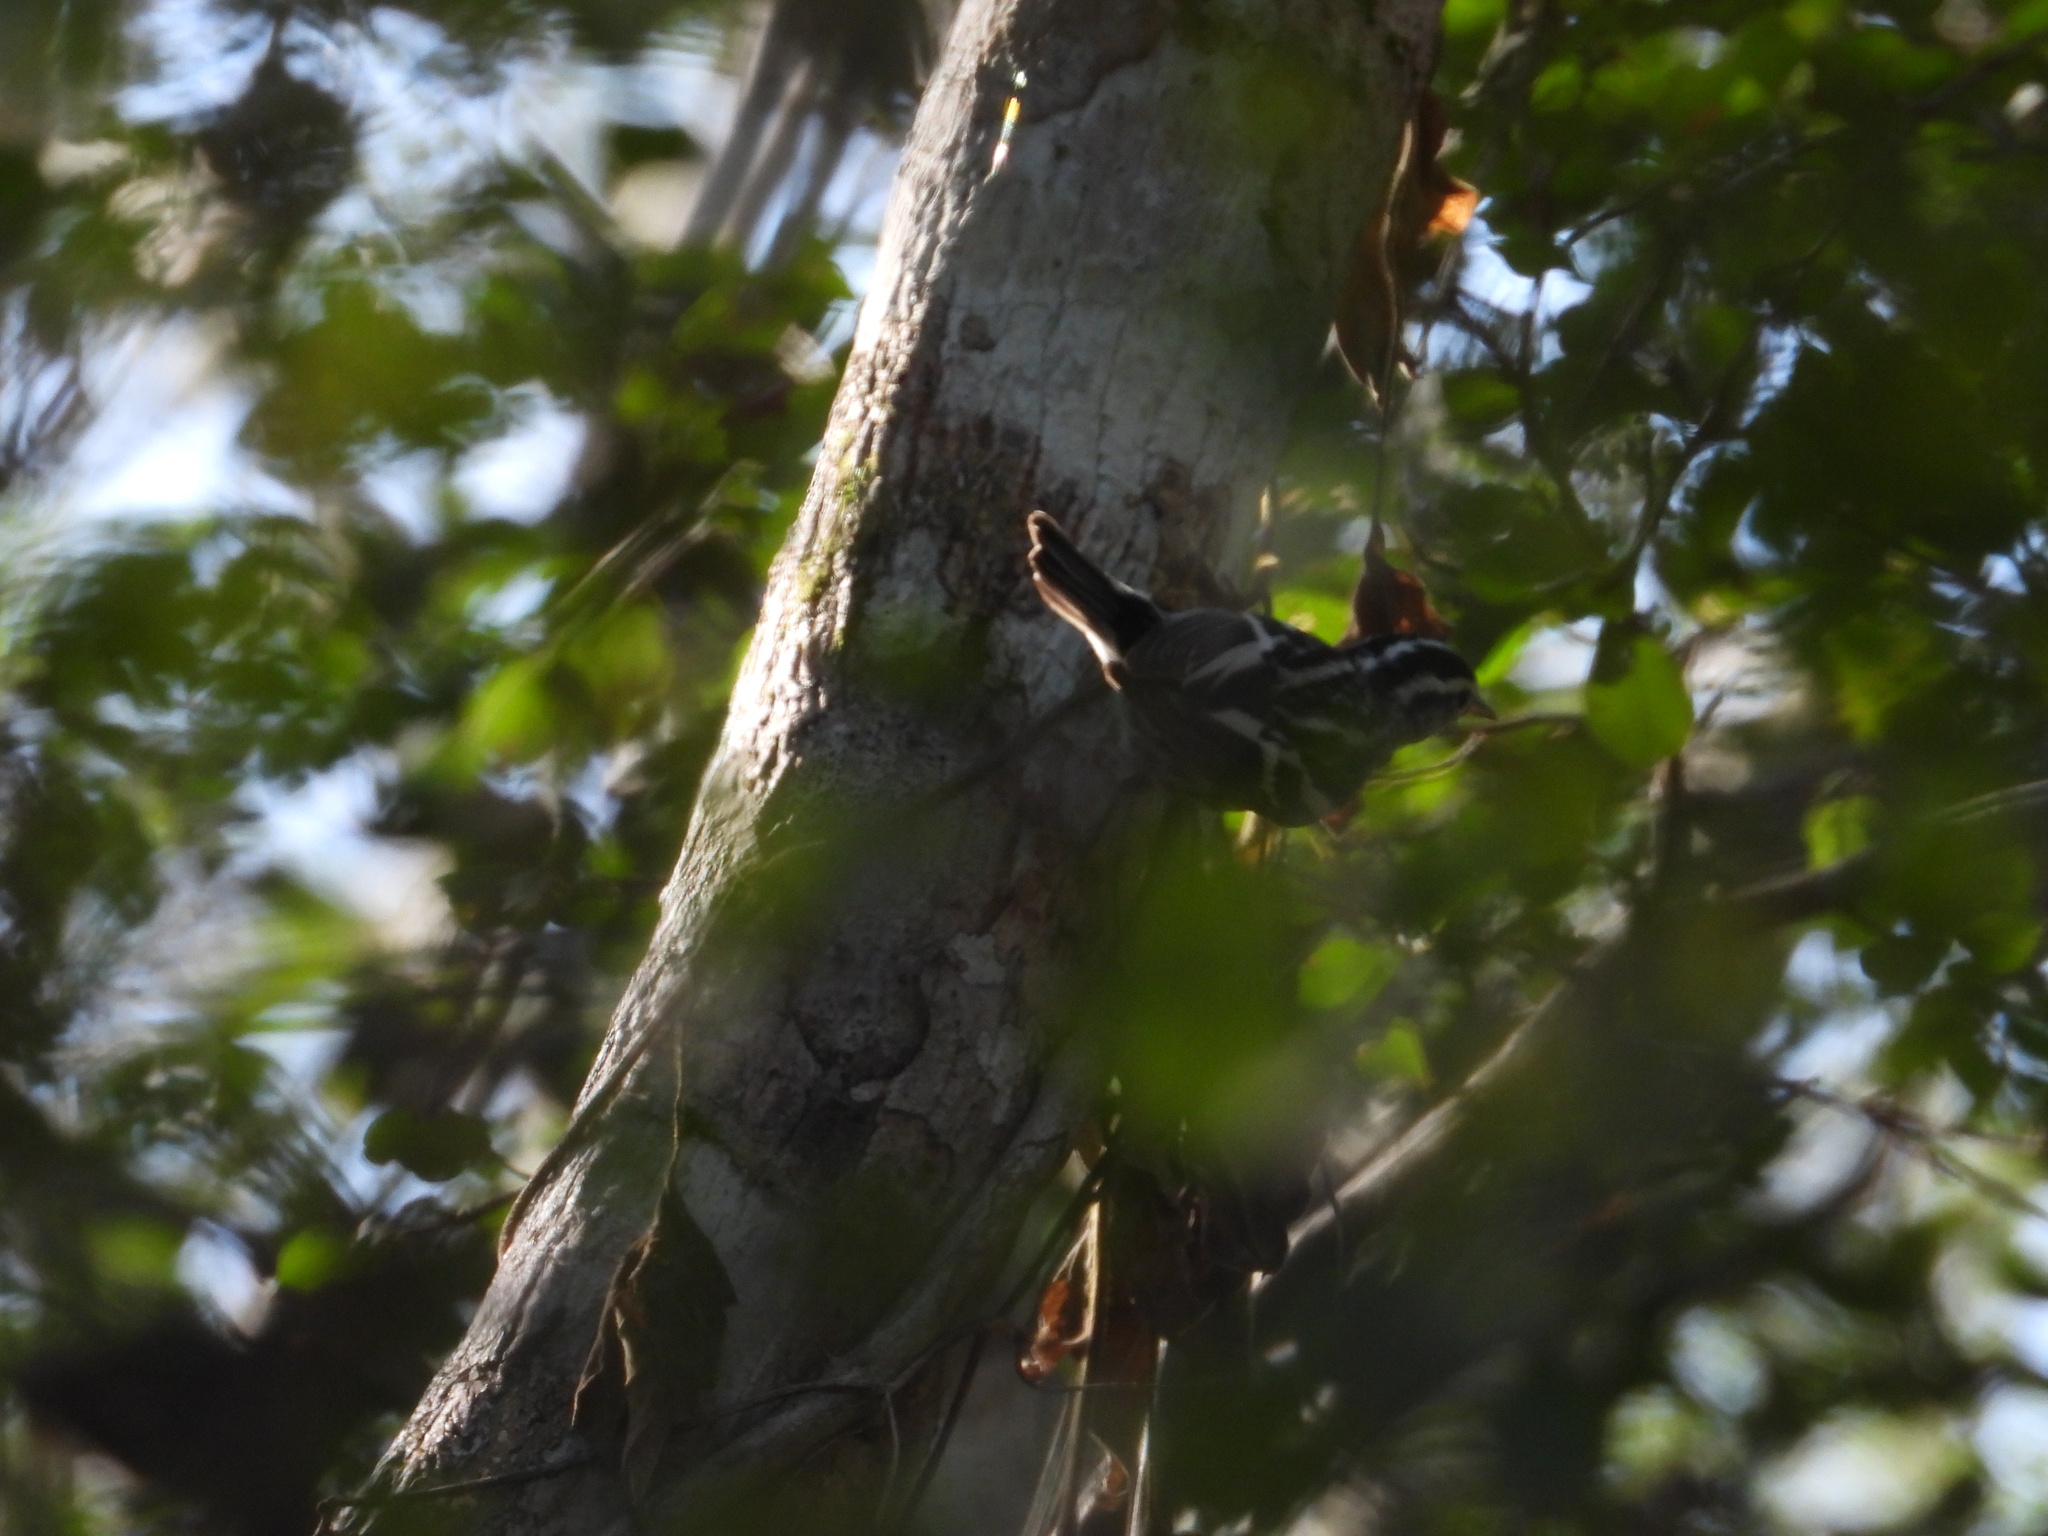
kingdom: Animalia
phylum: Chordata
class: Aves
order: Passeriformes
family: Parulidae
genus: Mniotilta
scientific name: Mniotilta varia
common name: Black-and-white warbler
